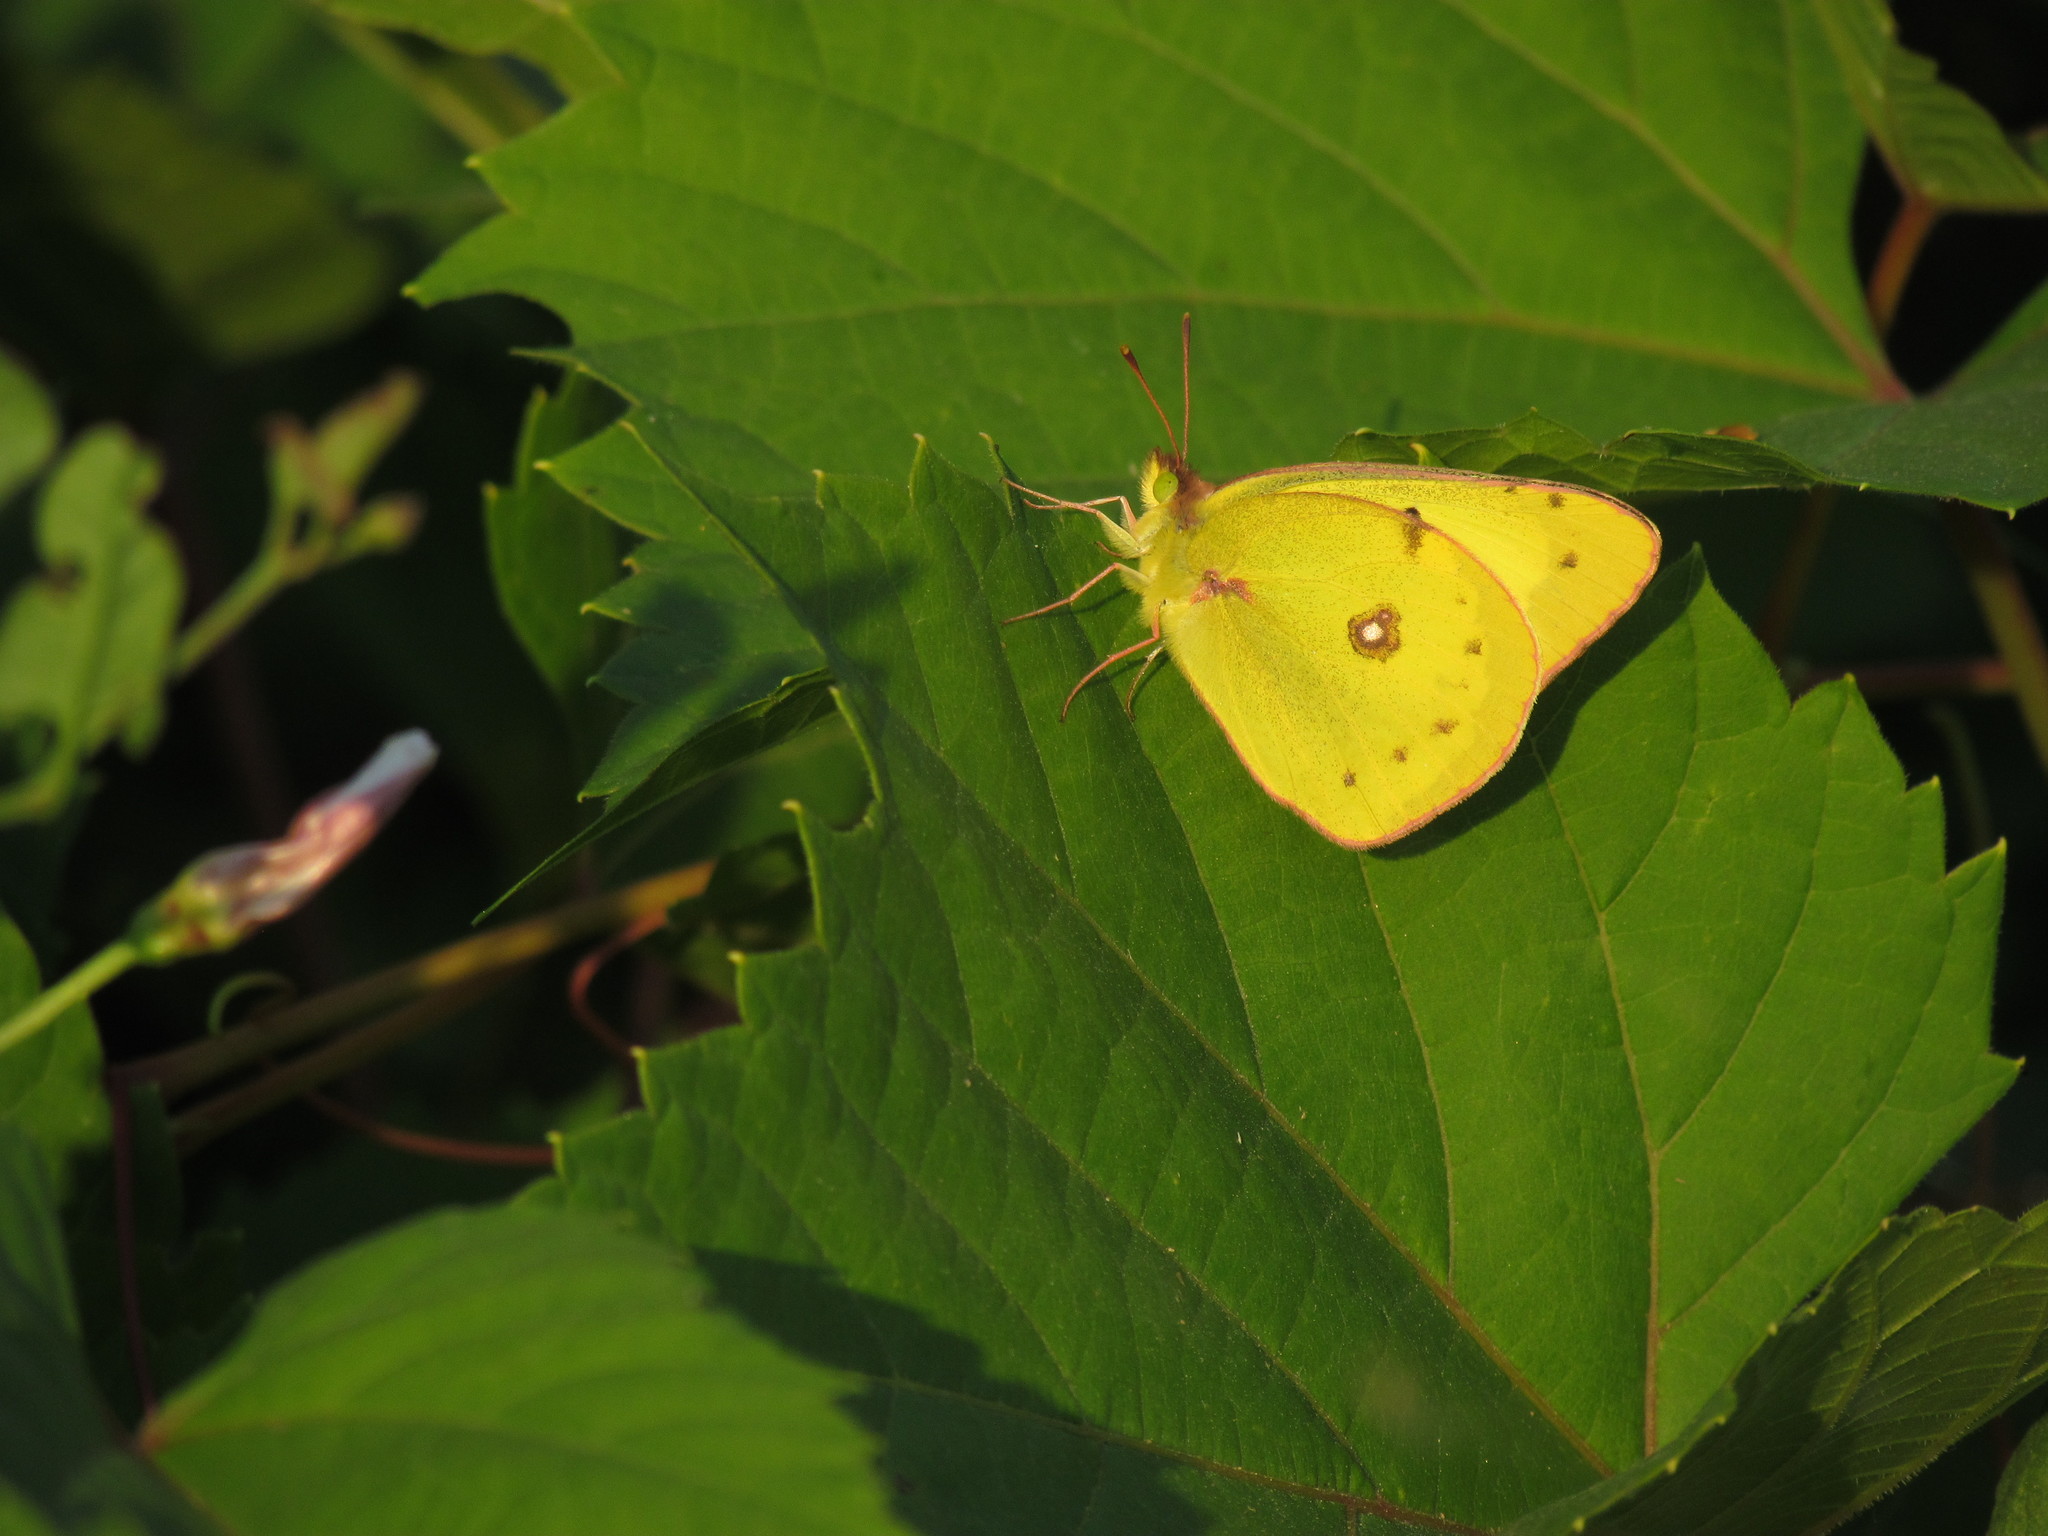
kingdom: Animalia
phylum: Arthropoda
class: Insecta
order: Lepidoptera
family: Pieridae
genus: Colias
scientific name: Colias eurytheme
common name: Alfalfa butterfly
